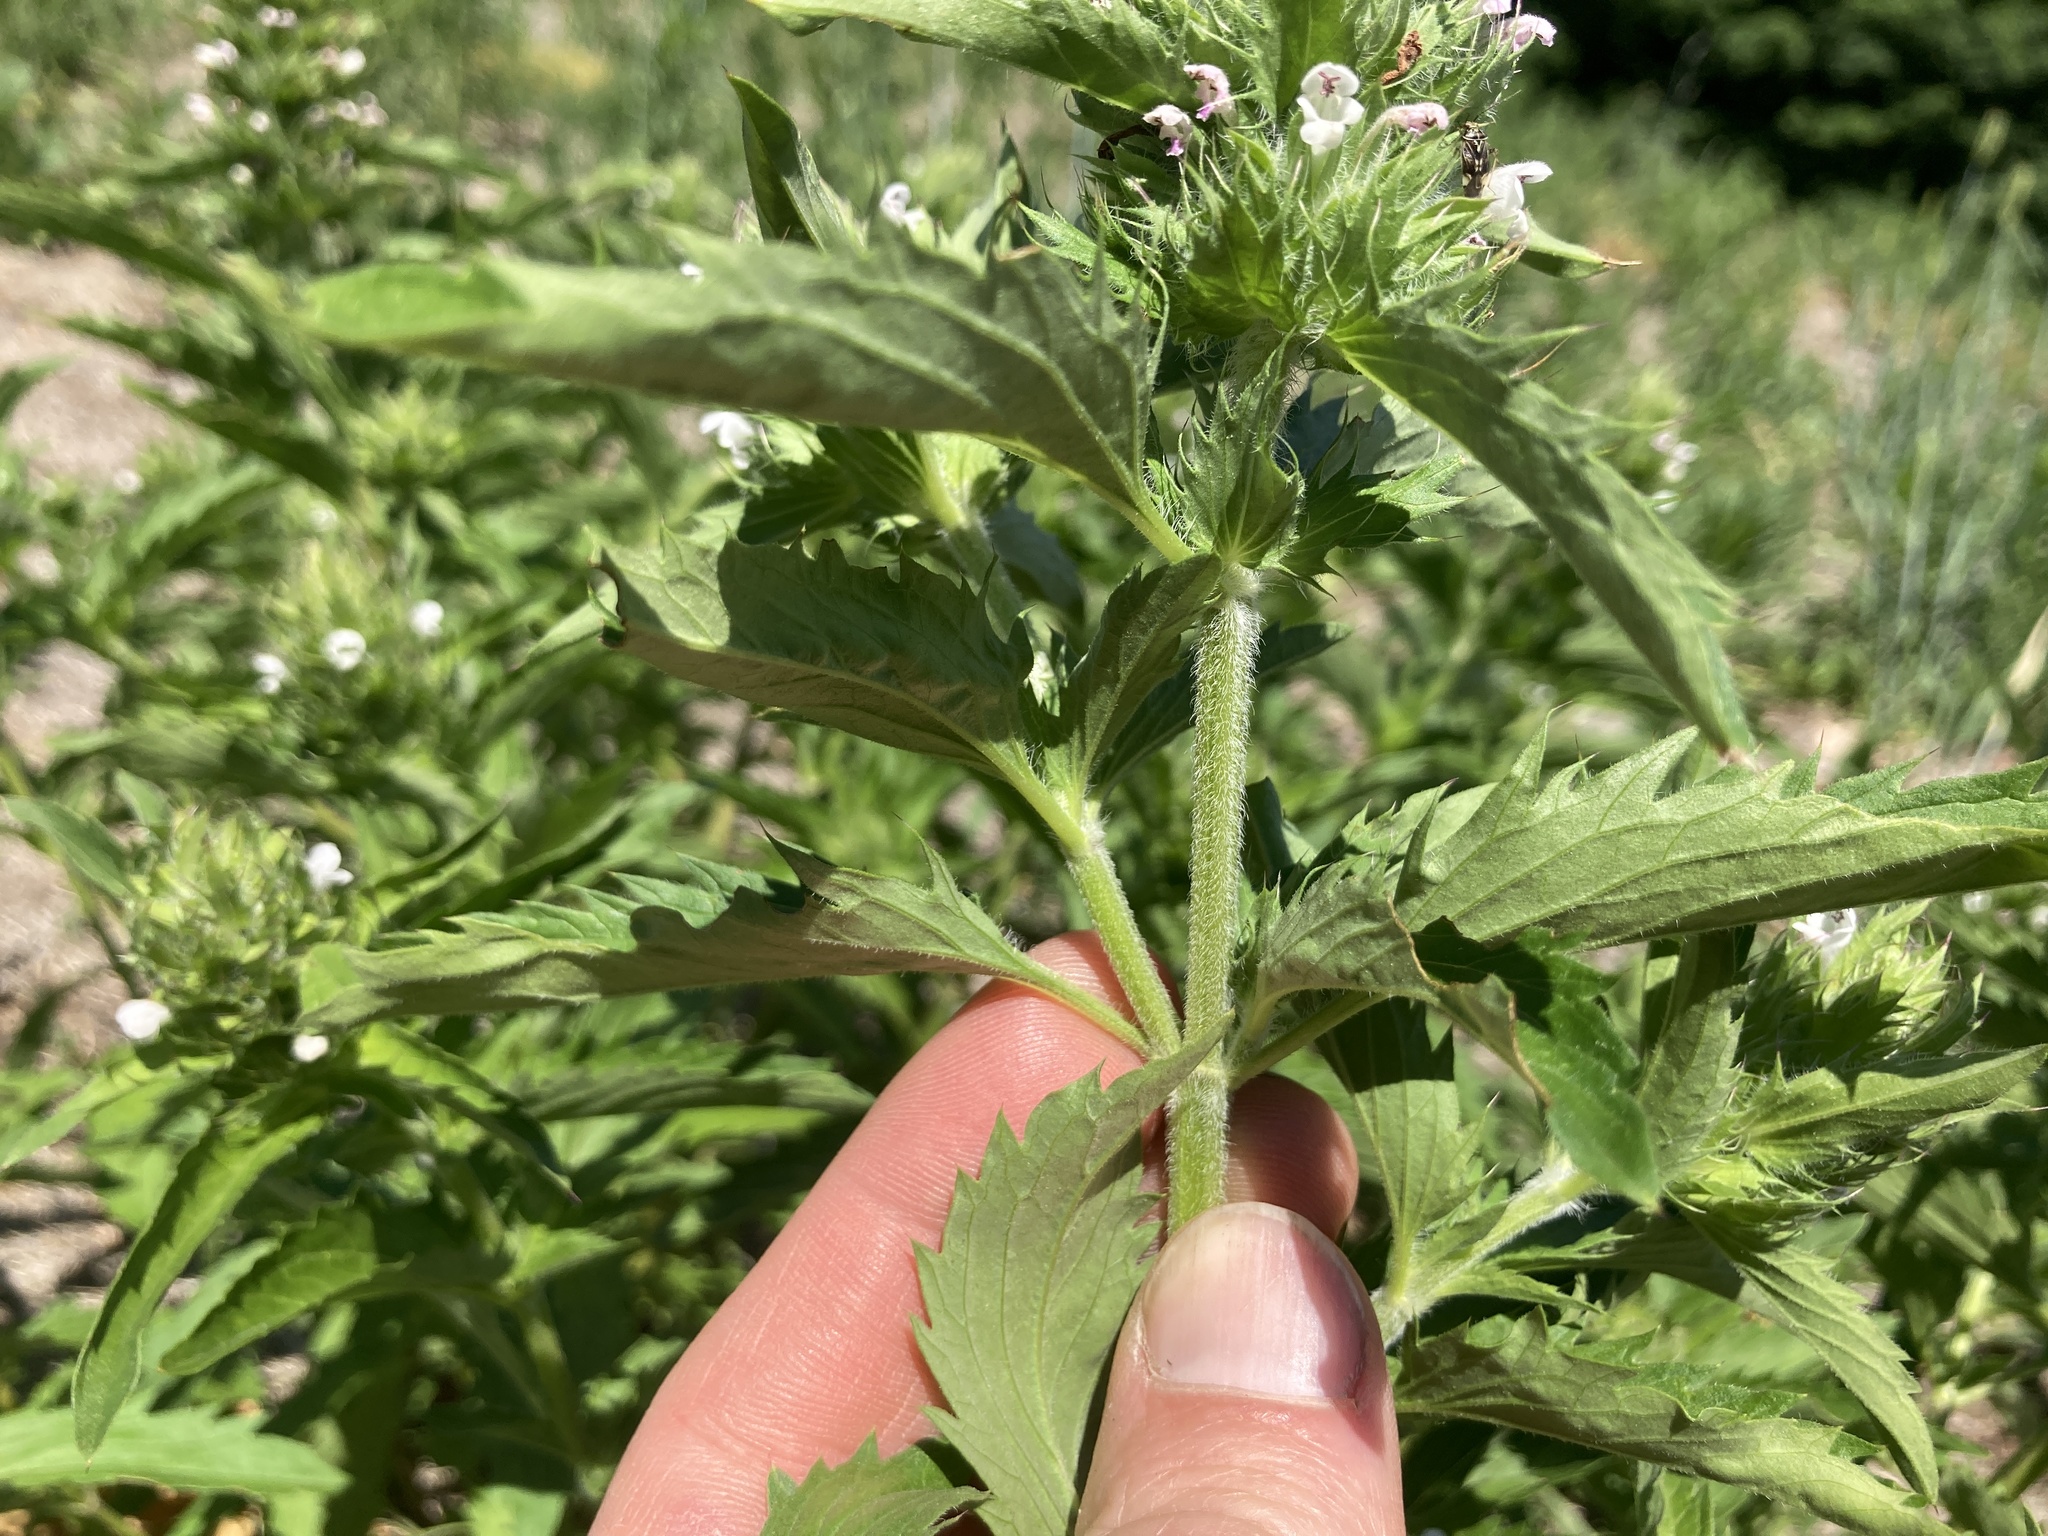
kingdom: Plantae
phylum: Tracheophyta
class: Magnoliopsida
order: Lamiales
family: Lamiaceae
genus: Dracocephalum
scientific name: Dracocephalum parviflorum
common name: American dragonhead
